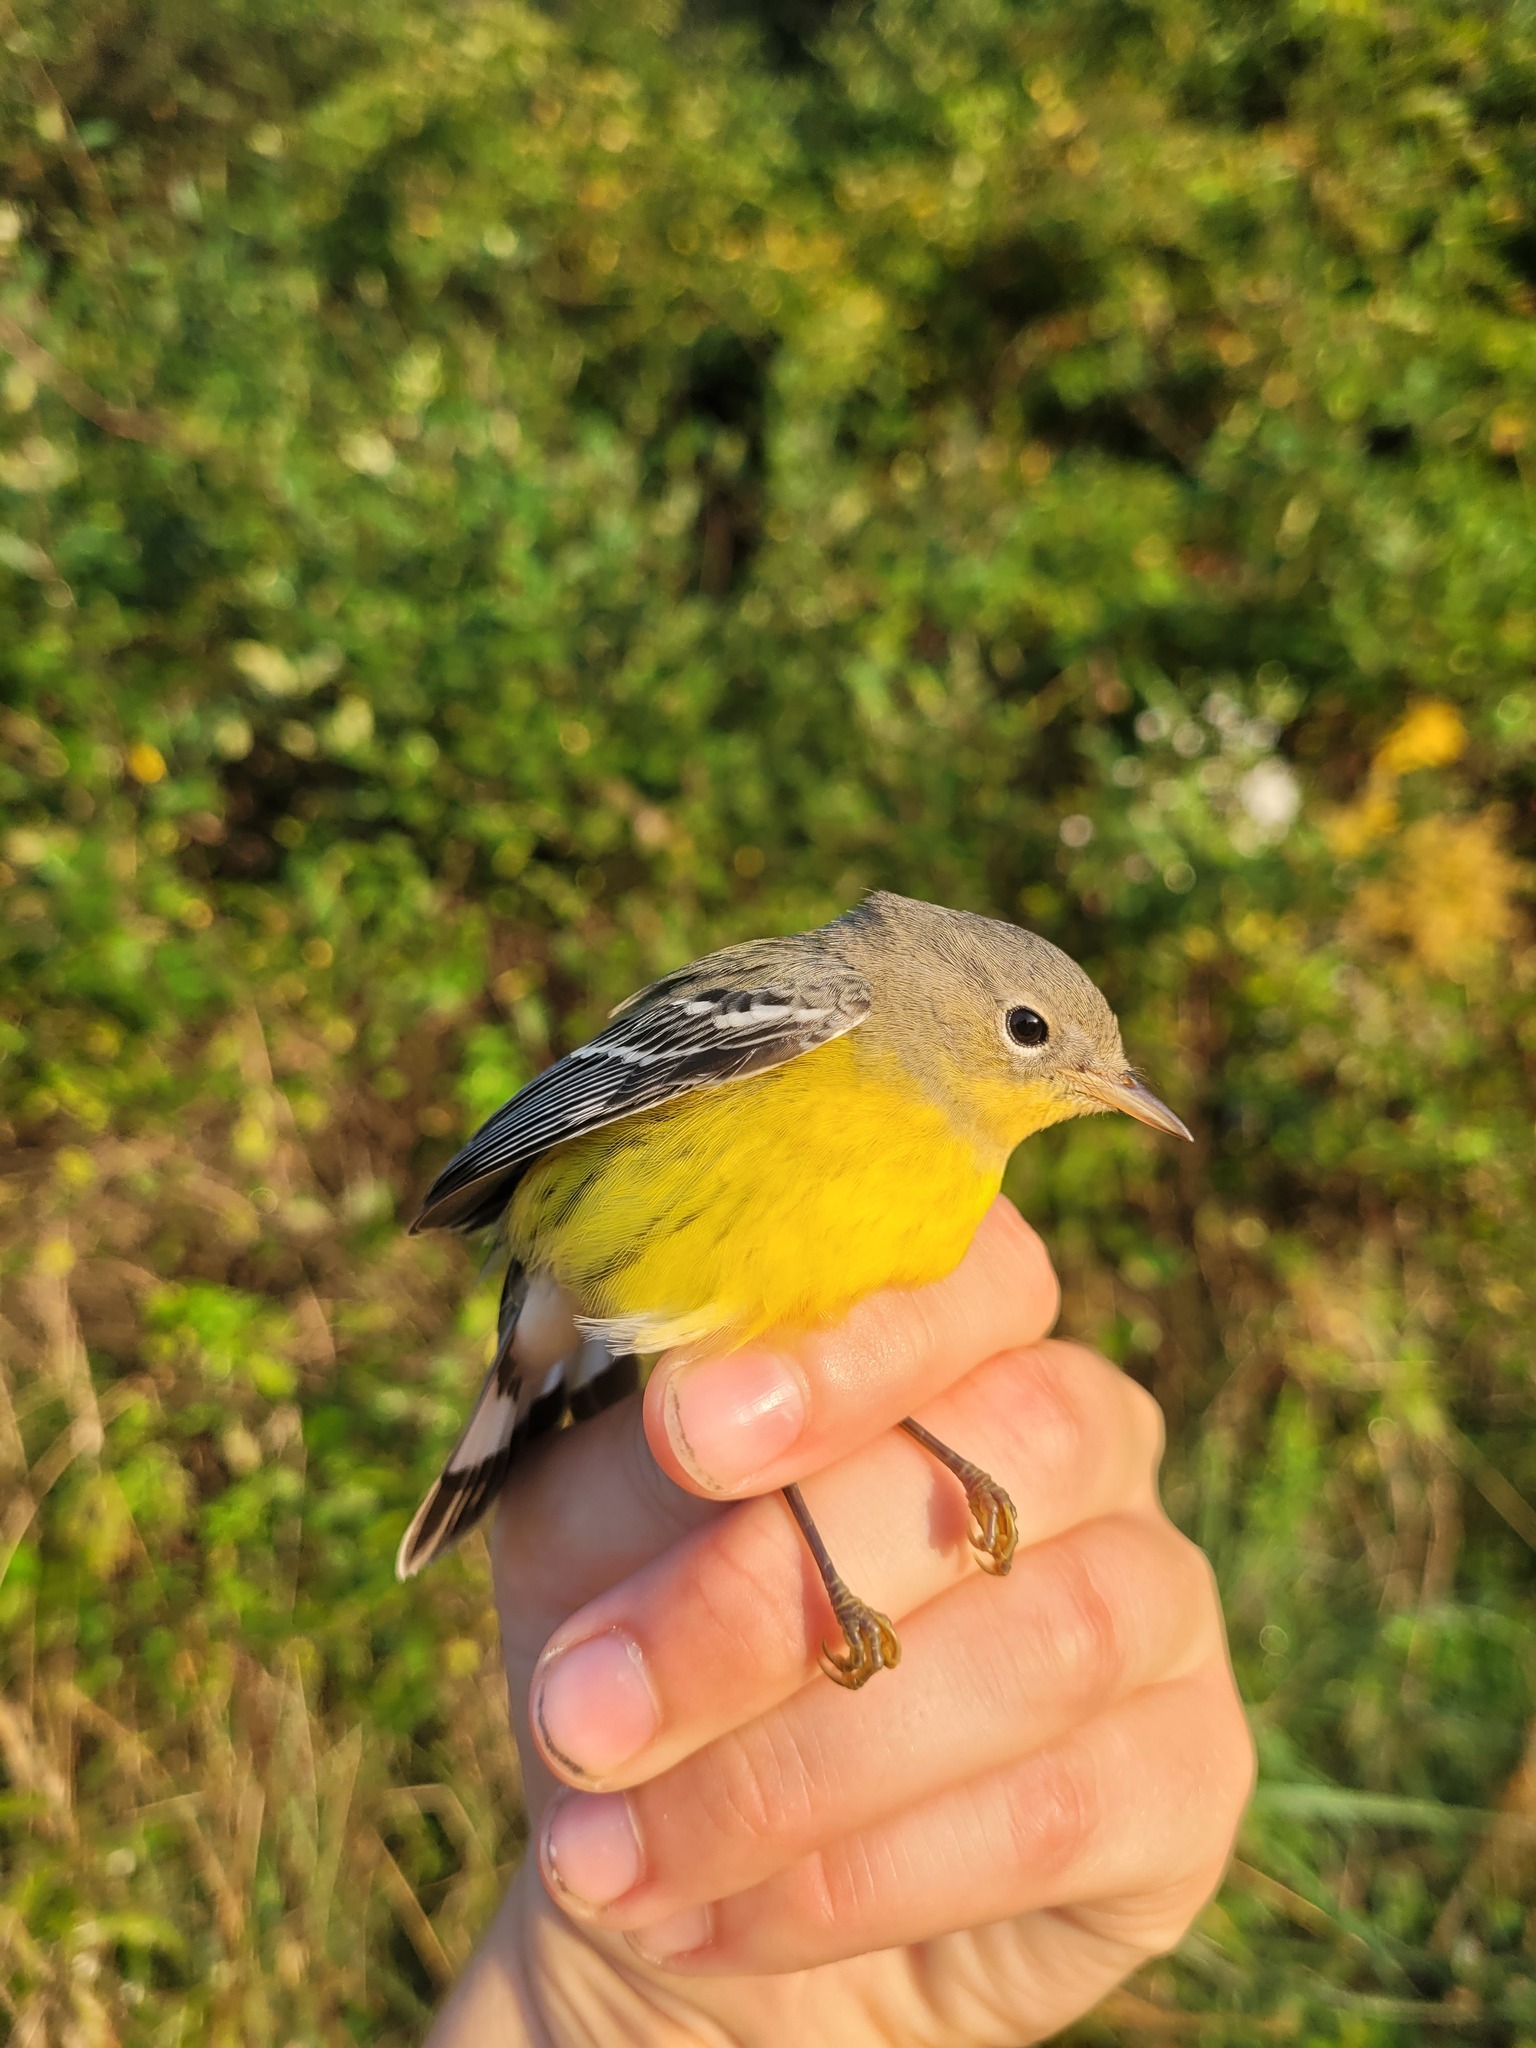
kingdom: Animalia
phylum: Chordata
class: Aves
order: Passeriformes
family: Parulidae
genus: Setophaga
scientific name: Setophaga magnolia
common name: Magnolia warbler
